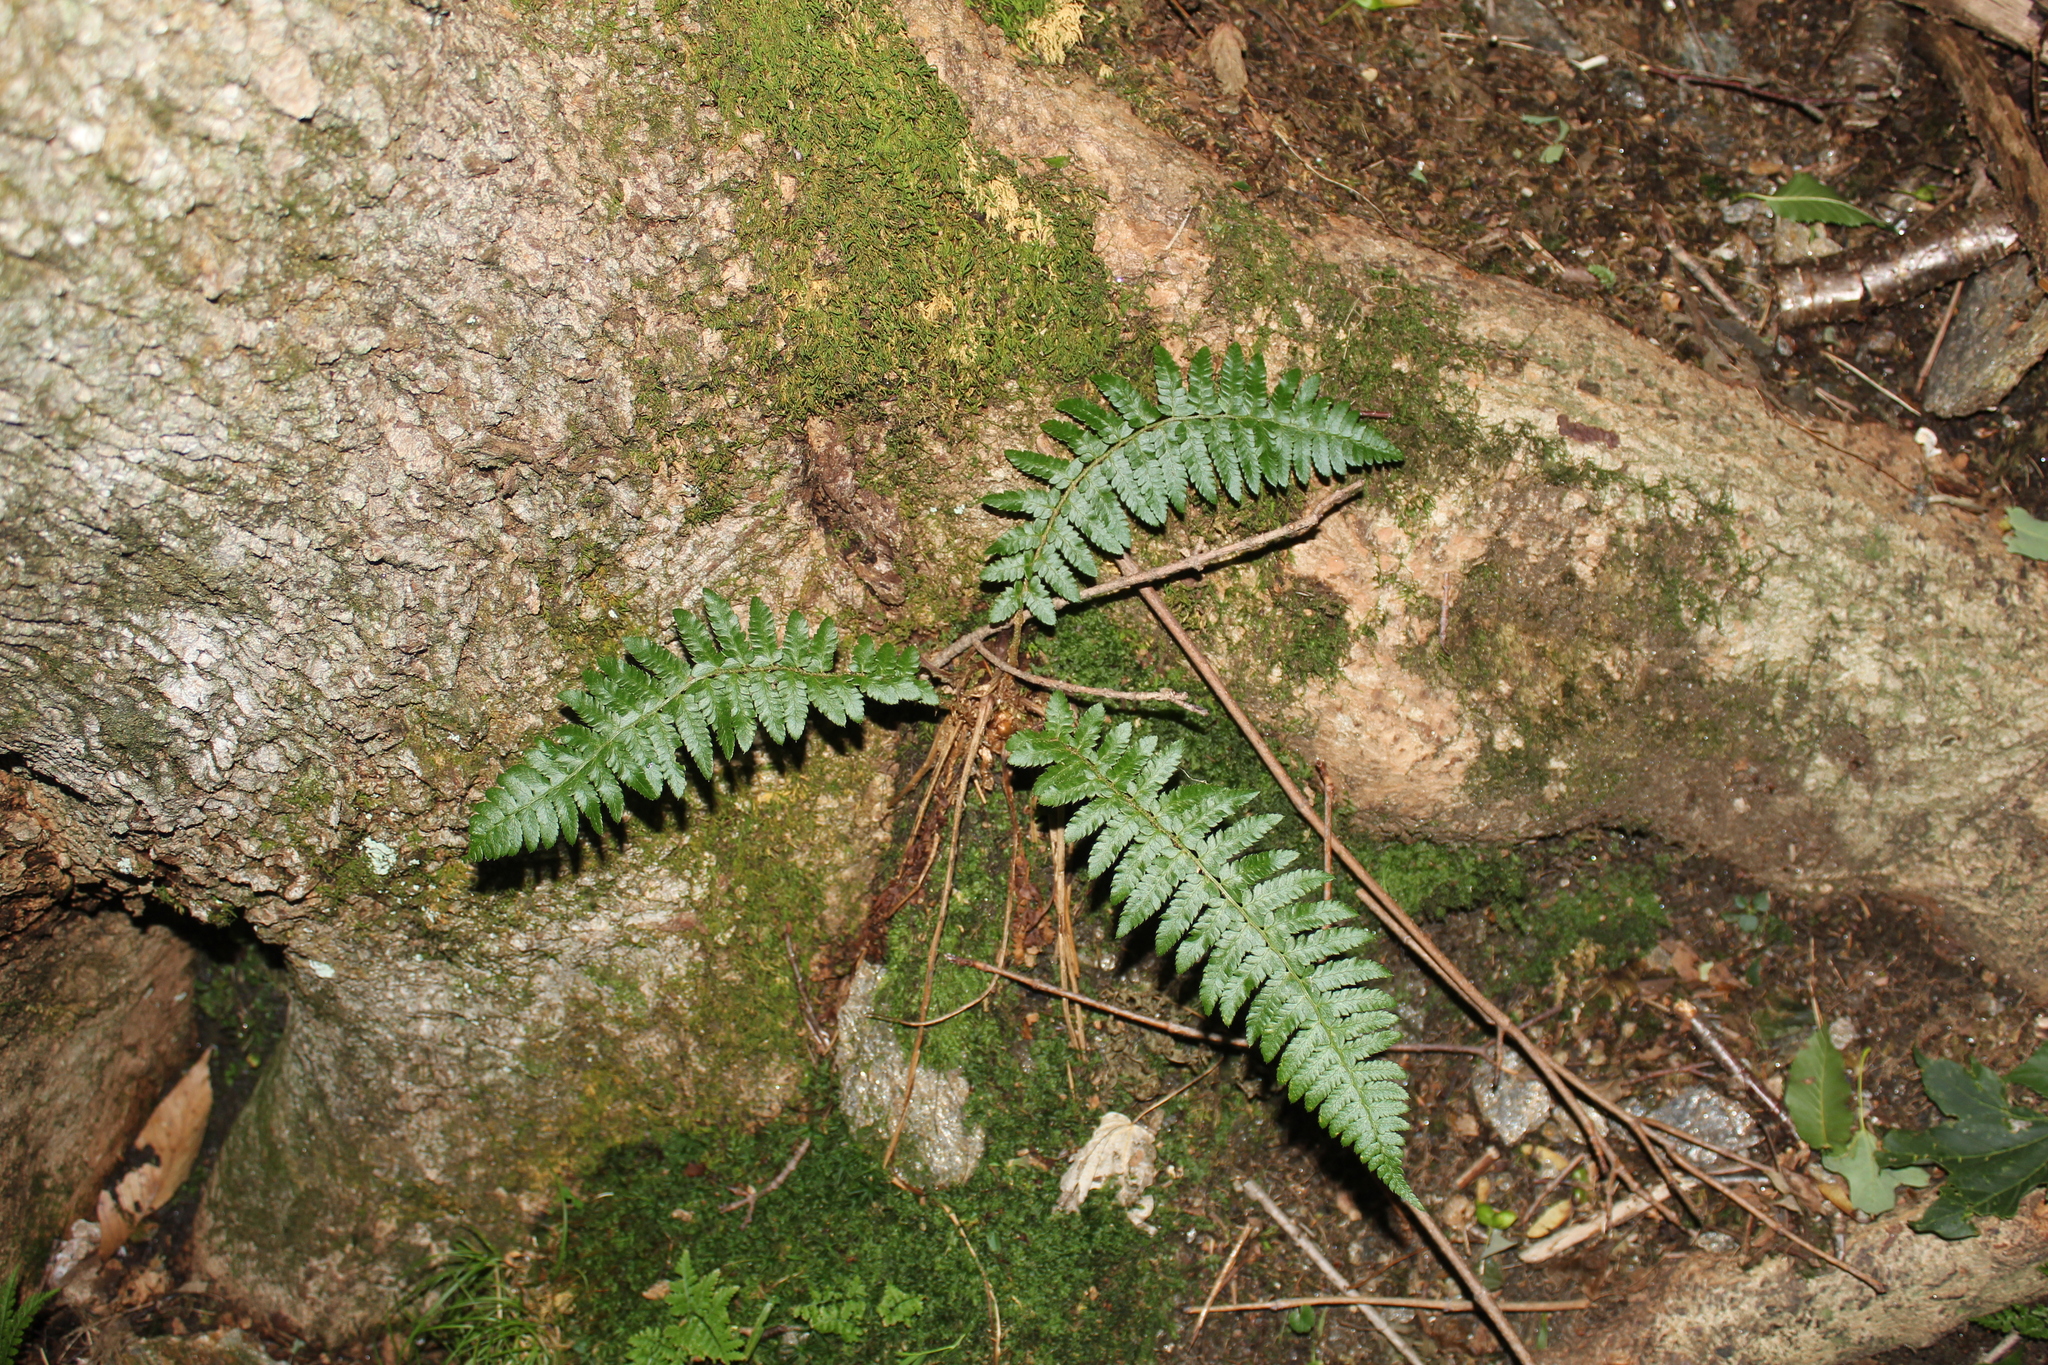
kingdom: Plantae
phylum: Tracheophyta
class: Polypodiopsida
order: Polypodiales
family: Dryopteridaceae
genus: Polystichum
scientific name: Polystichum braunii
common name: Braun's holly fern
